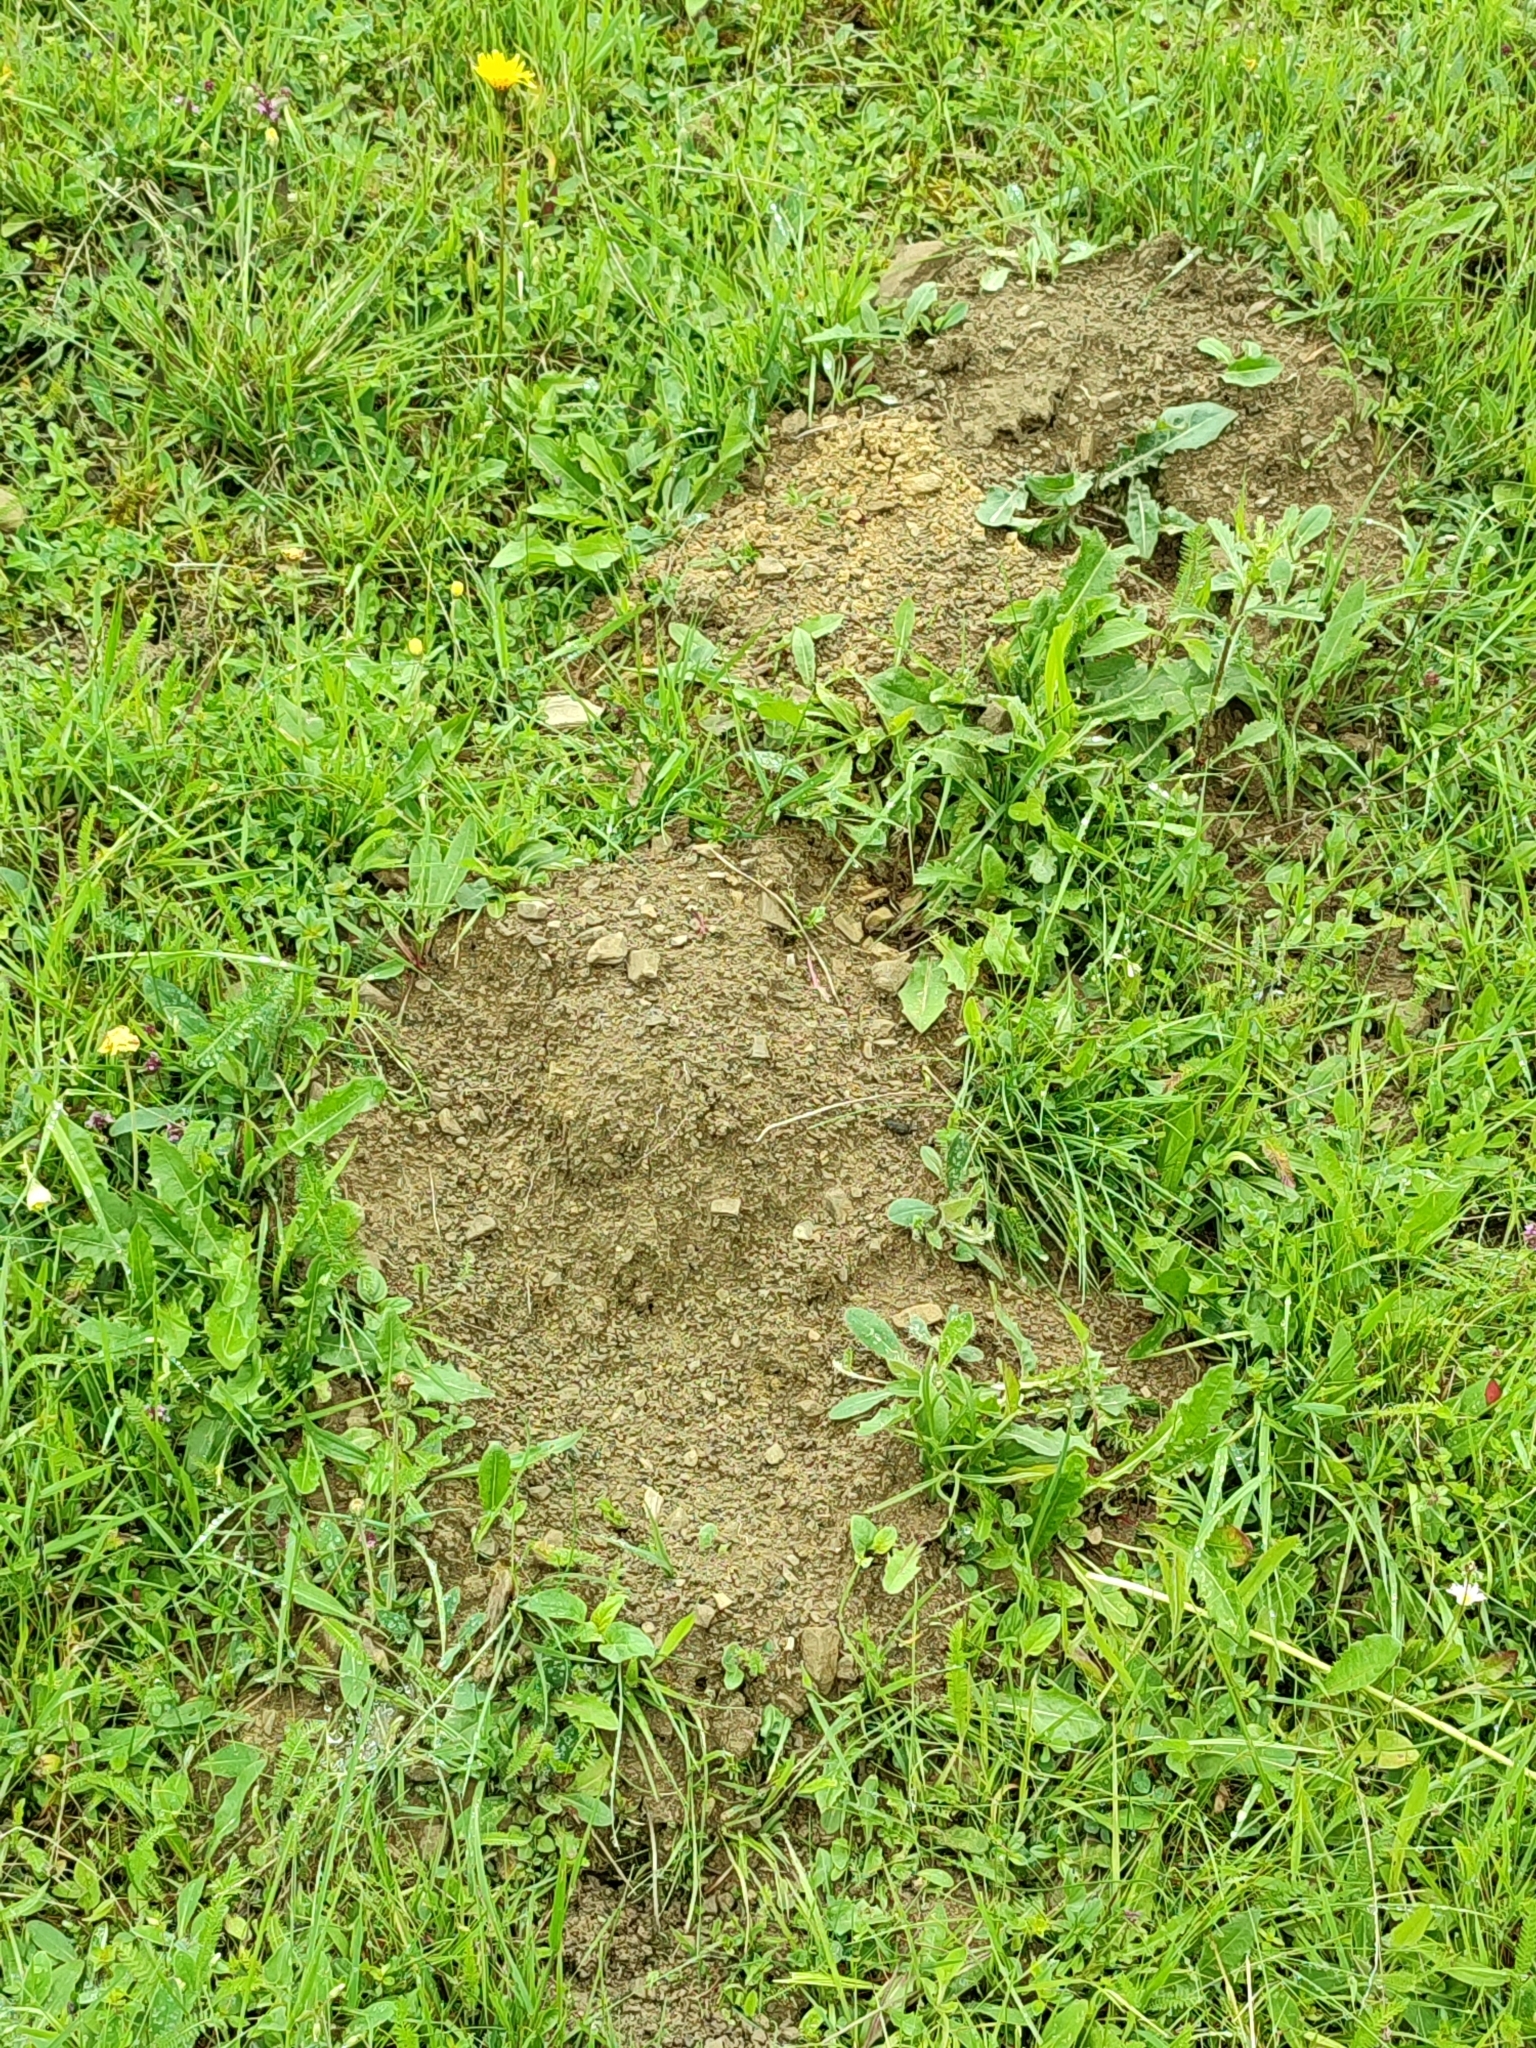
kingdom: Animalia
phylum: Chordata
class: Mammalia
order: Soricomorpha
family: Talpidae
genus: Talpa
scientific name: Talpa europaea
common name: European mole
